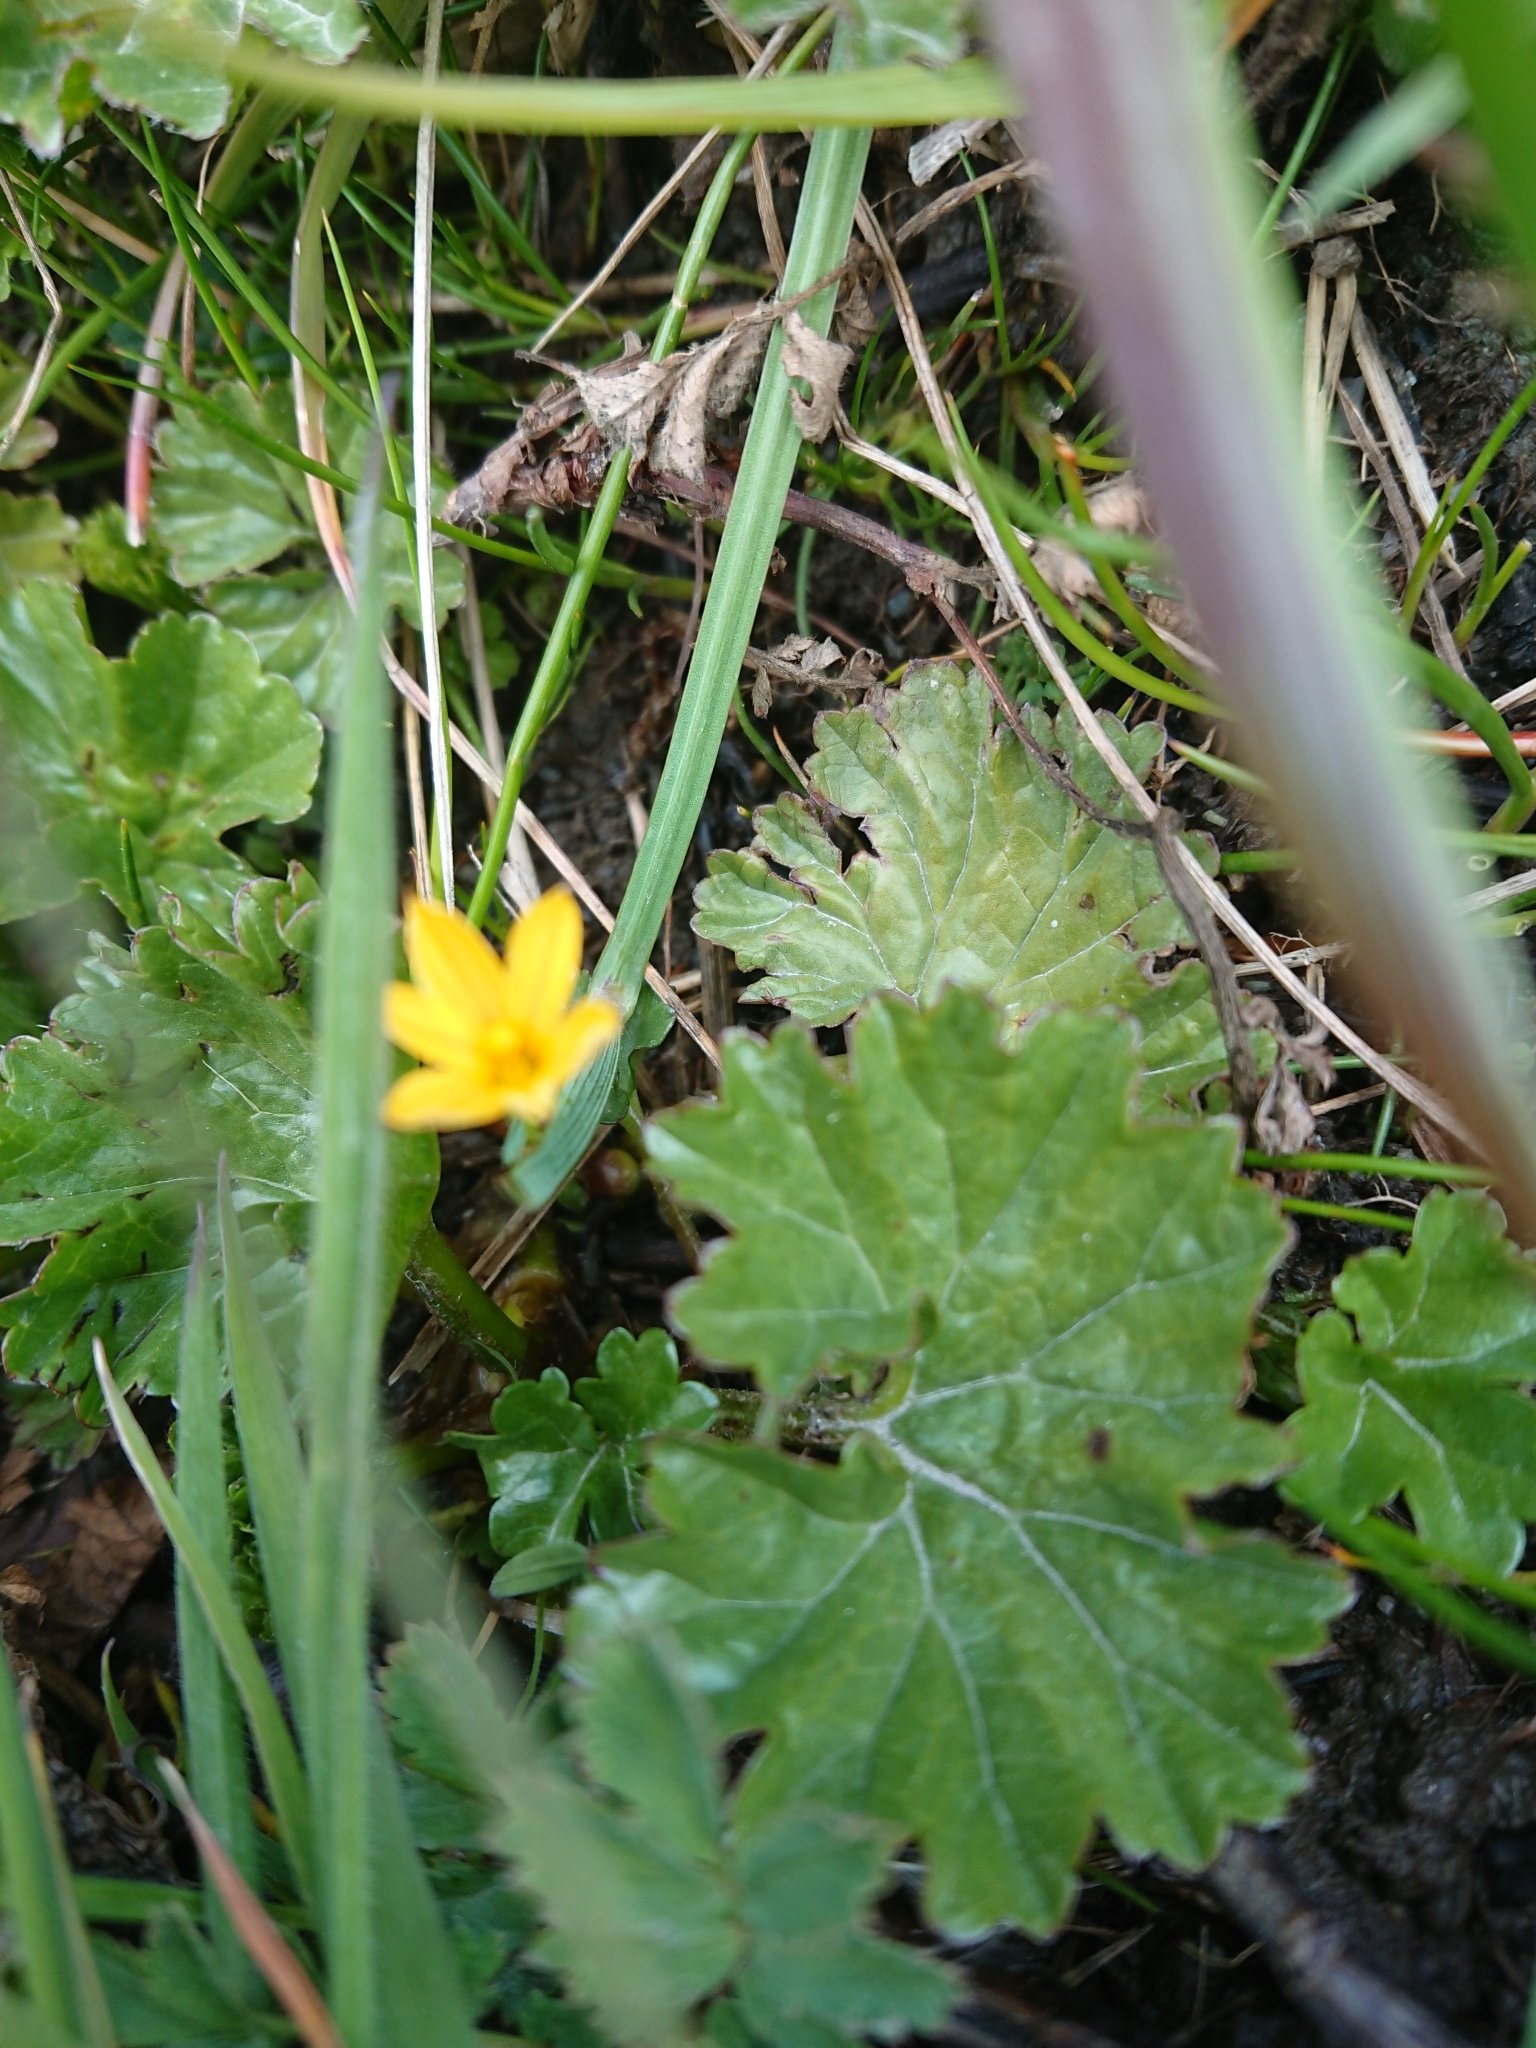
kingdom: Plantae
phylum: Tracheophyta
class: Liliopsida
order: Asparagales
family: Iridaceae
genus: Sisyrinchium
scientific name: Sisyrinchium patagonicum
